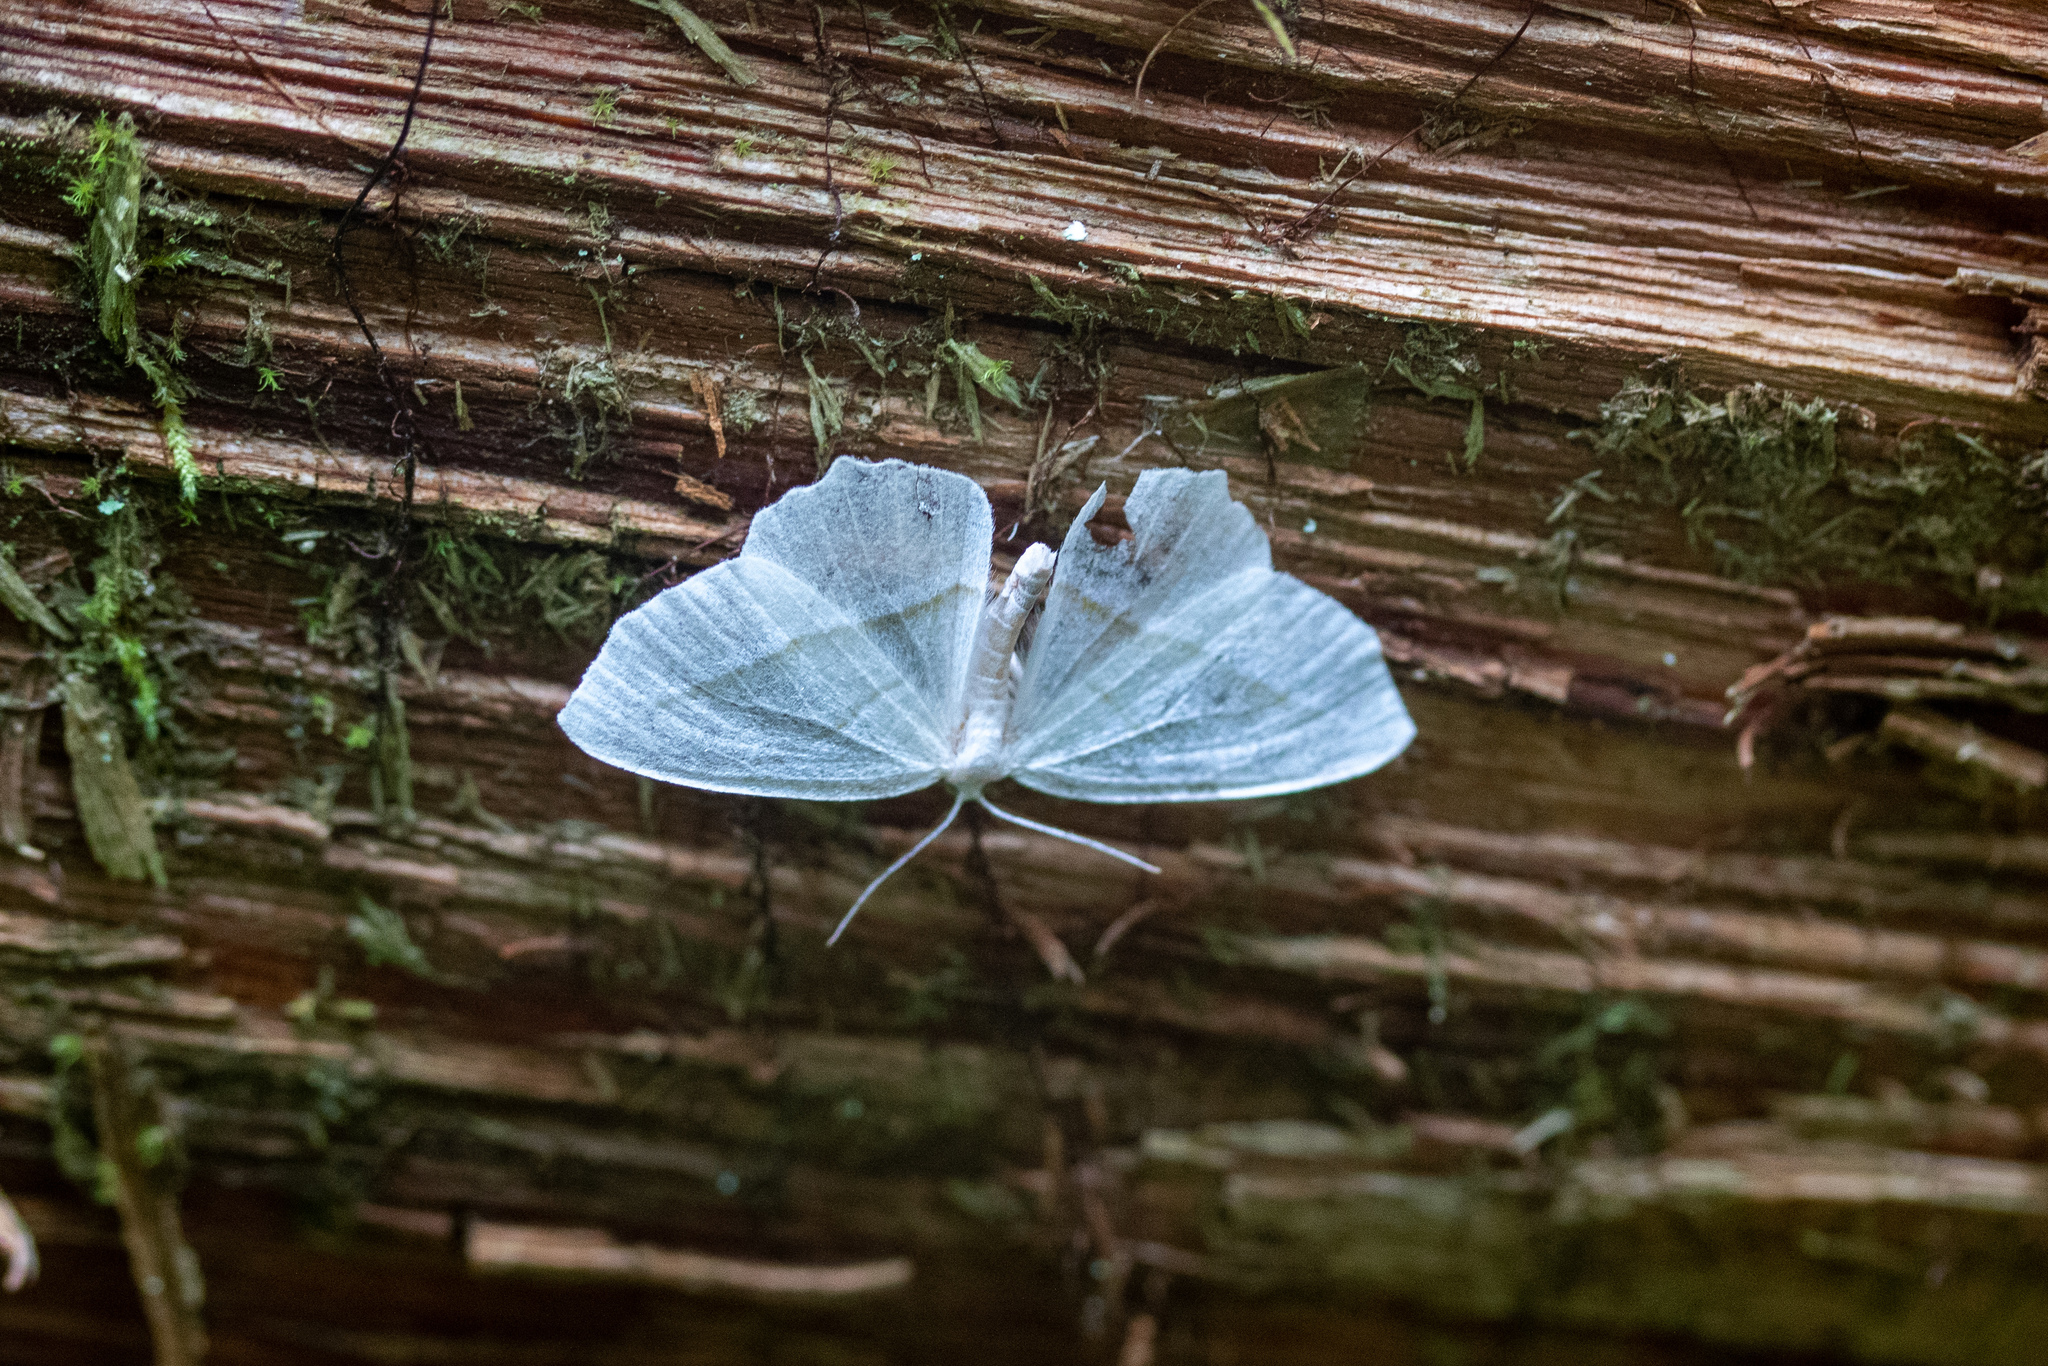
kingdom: Animalia
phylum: Arthropoda
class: Insecta
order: Lepidoptera
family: Geometridae
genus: Campaea
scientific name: Campaea perlata
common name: Fringed looper
